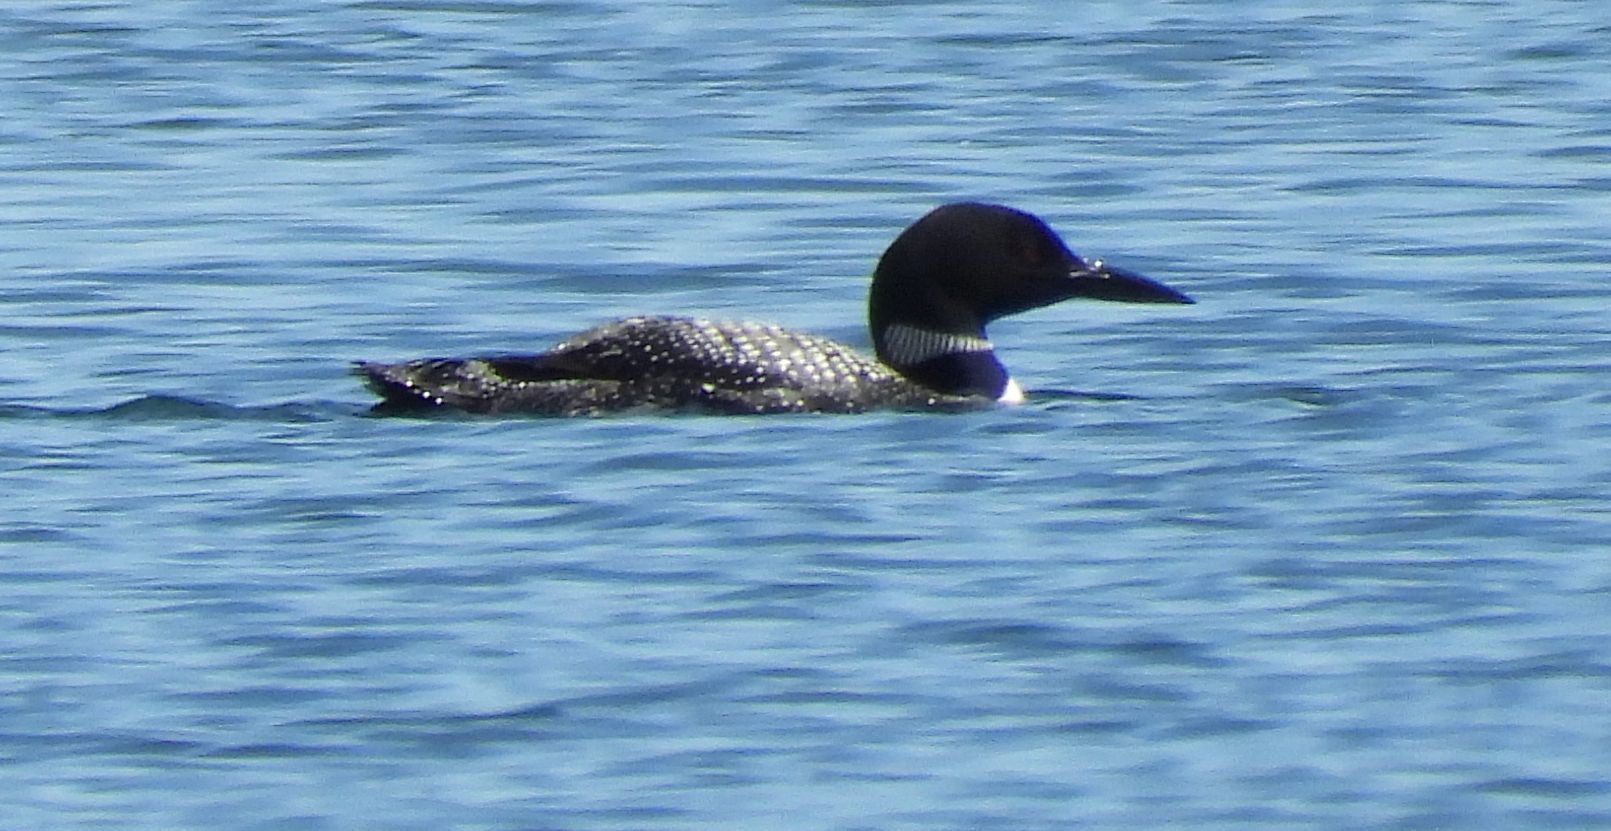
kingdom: Animalia
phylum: Chordata
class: Aves
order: Gaviiformes
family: Gaviidae
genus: Gavia
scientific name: Gavia immer
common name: Common loon
